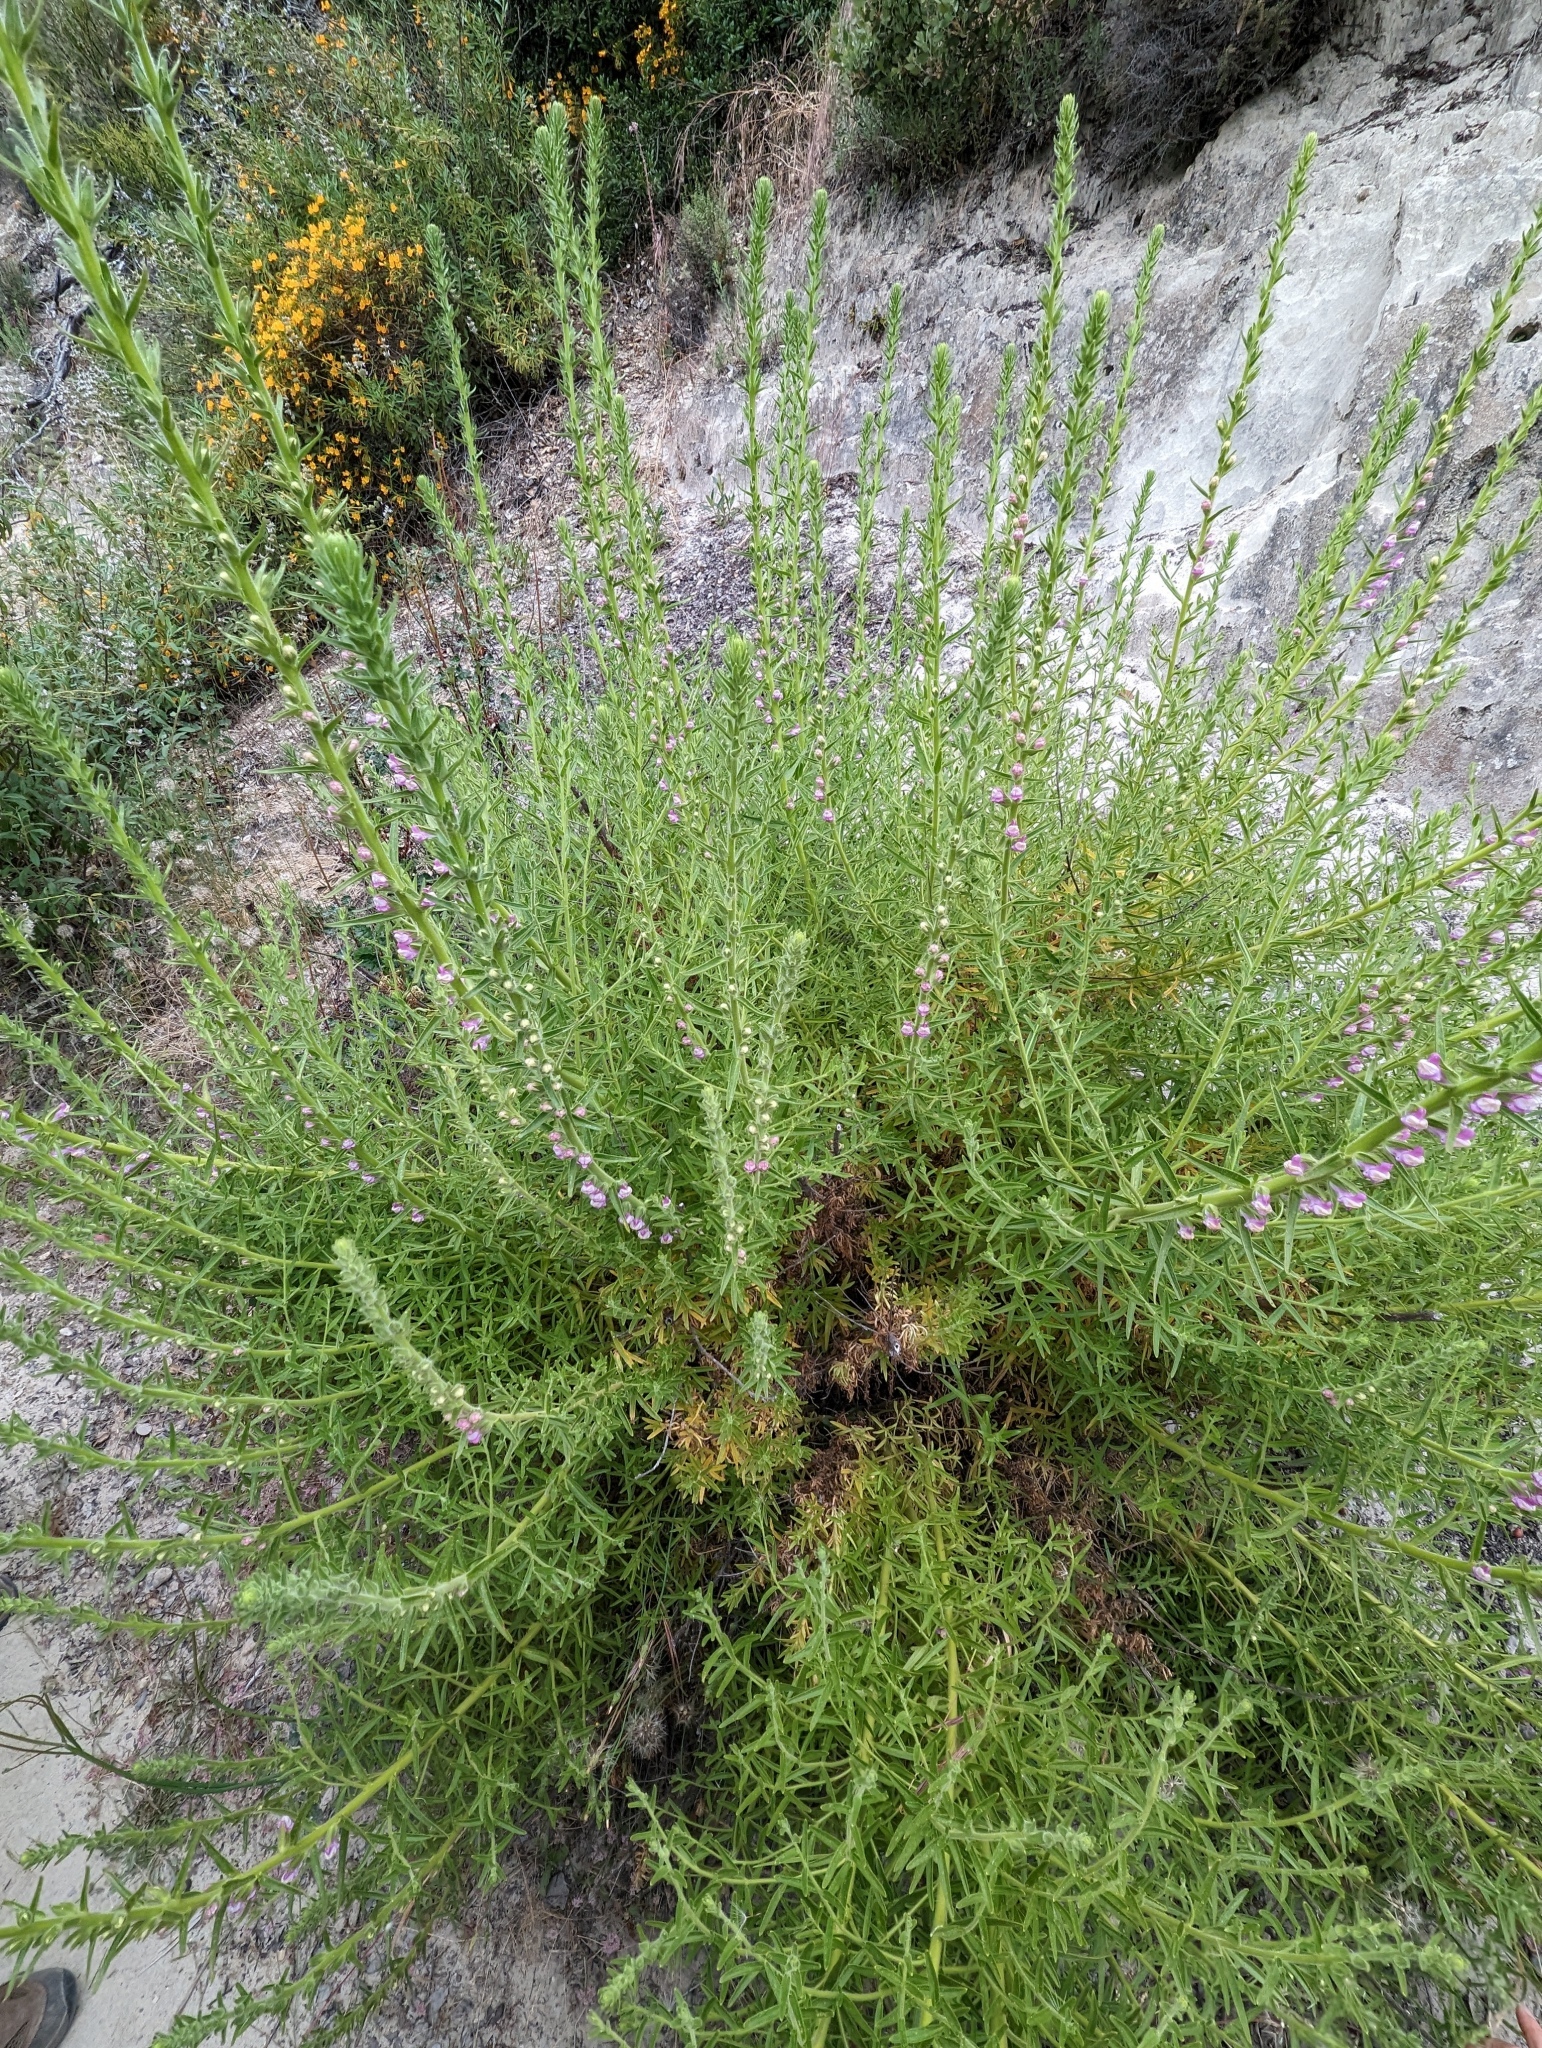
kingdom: Plantae
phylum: Tracheophyta
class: Magnoliopsida
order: Lamiales
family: Plantaginaceae
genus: Sairocarpus
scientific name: Sairocarpus multiflorus
